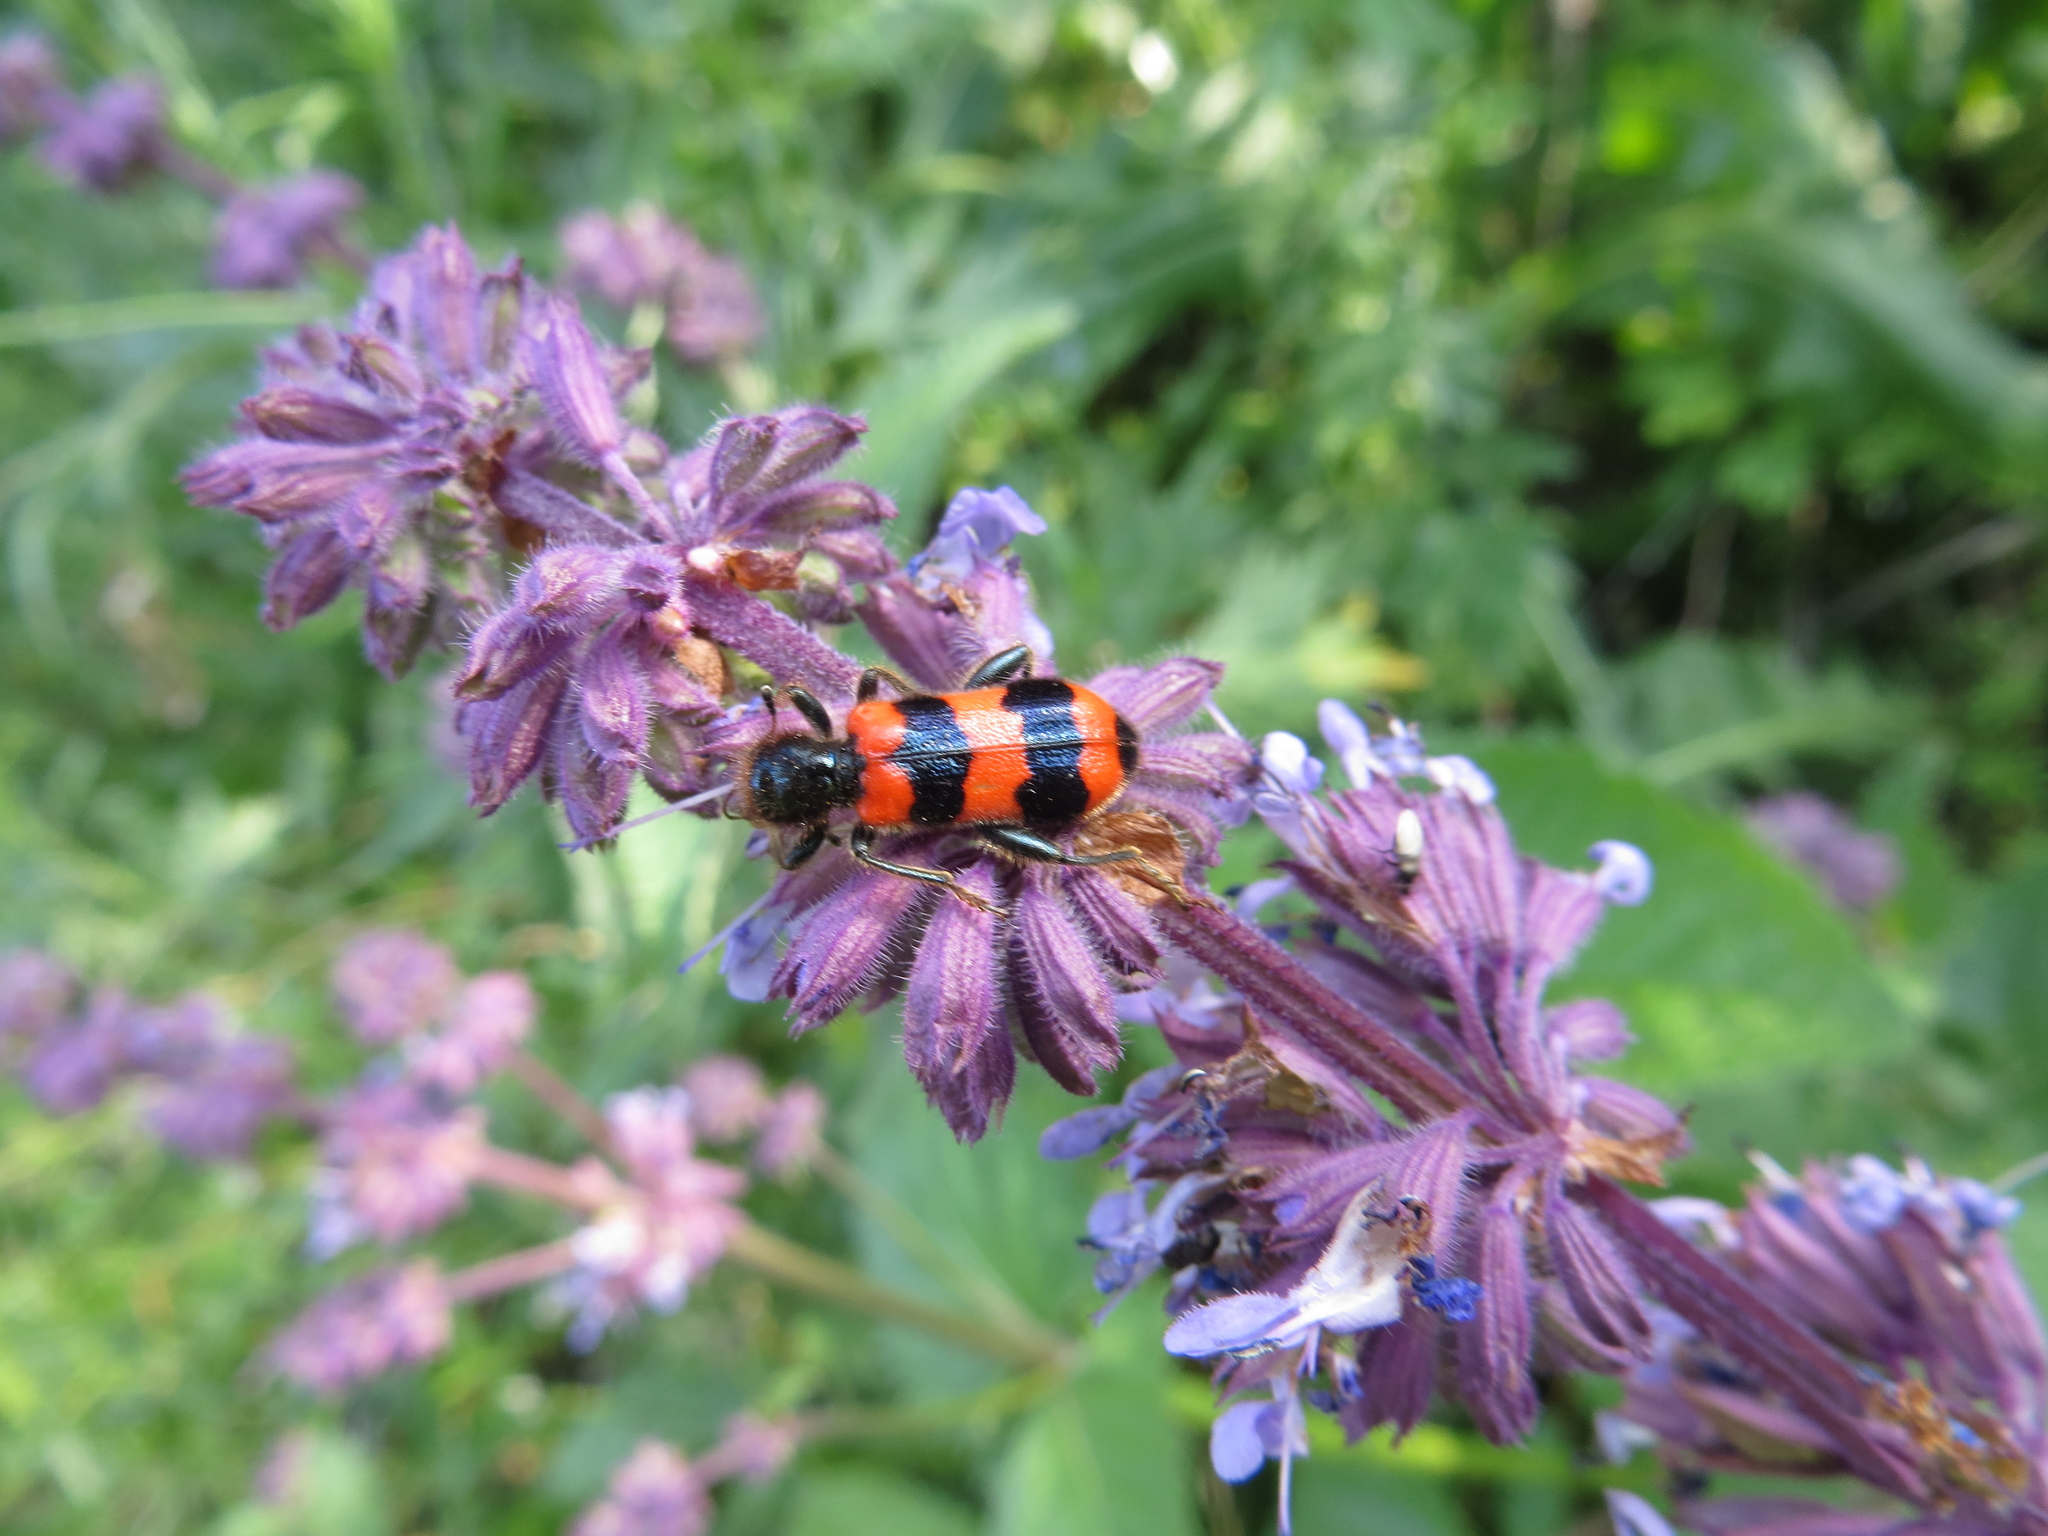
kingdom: Animalia
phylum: Arthropoda
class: Insecta
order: Coleoptera
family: Cleridae
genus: Trichodes
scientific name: Trichodes apiarius
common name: Bee-eating beetle
